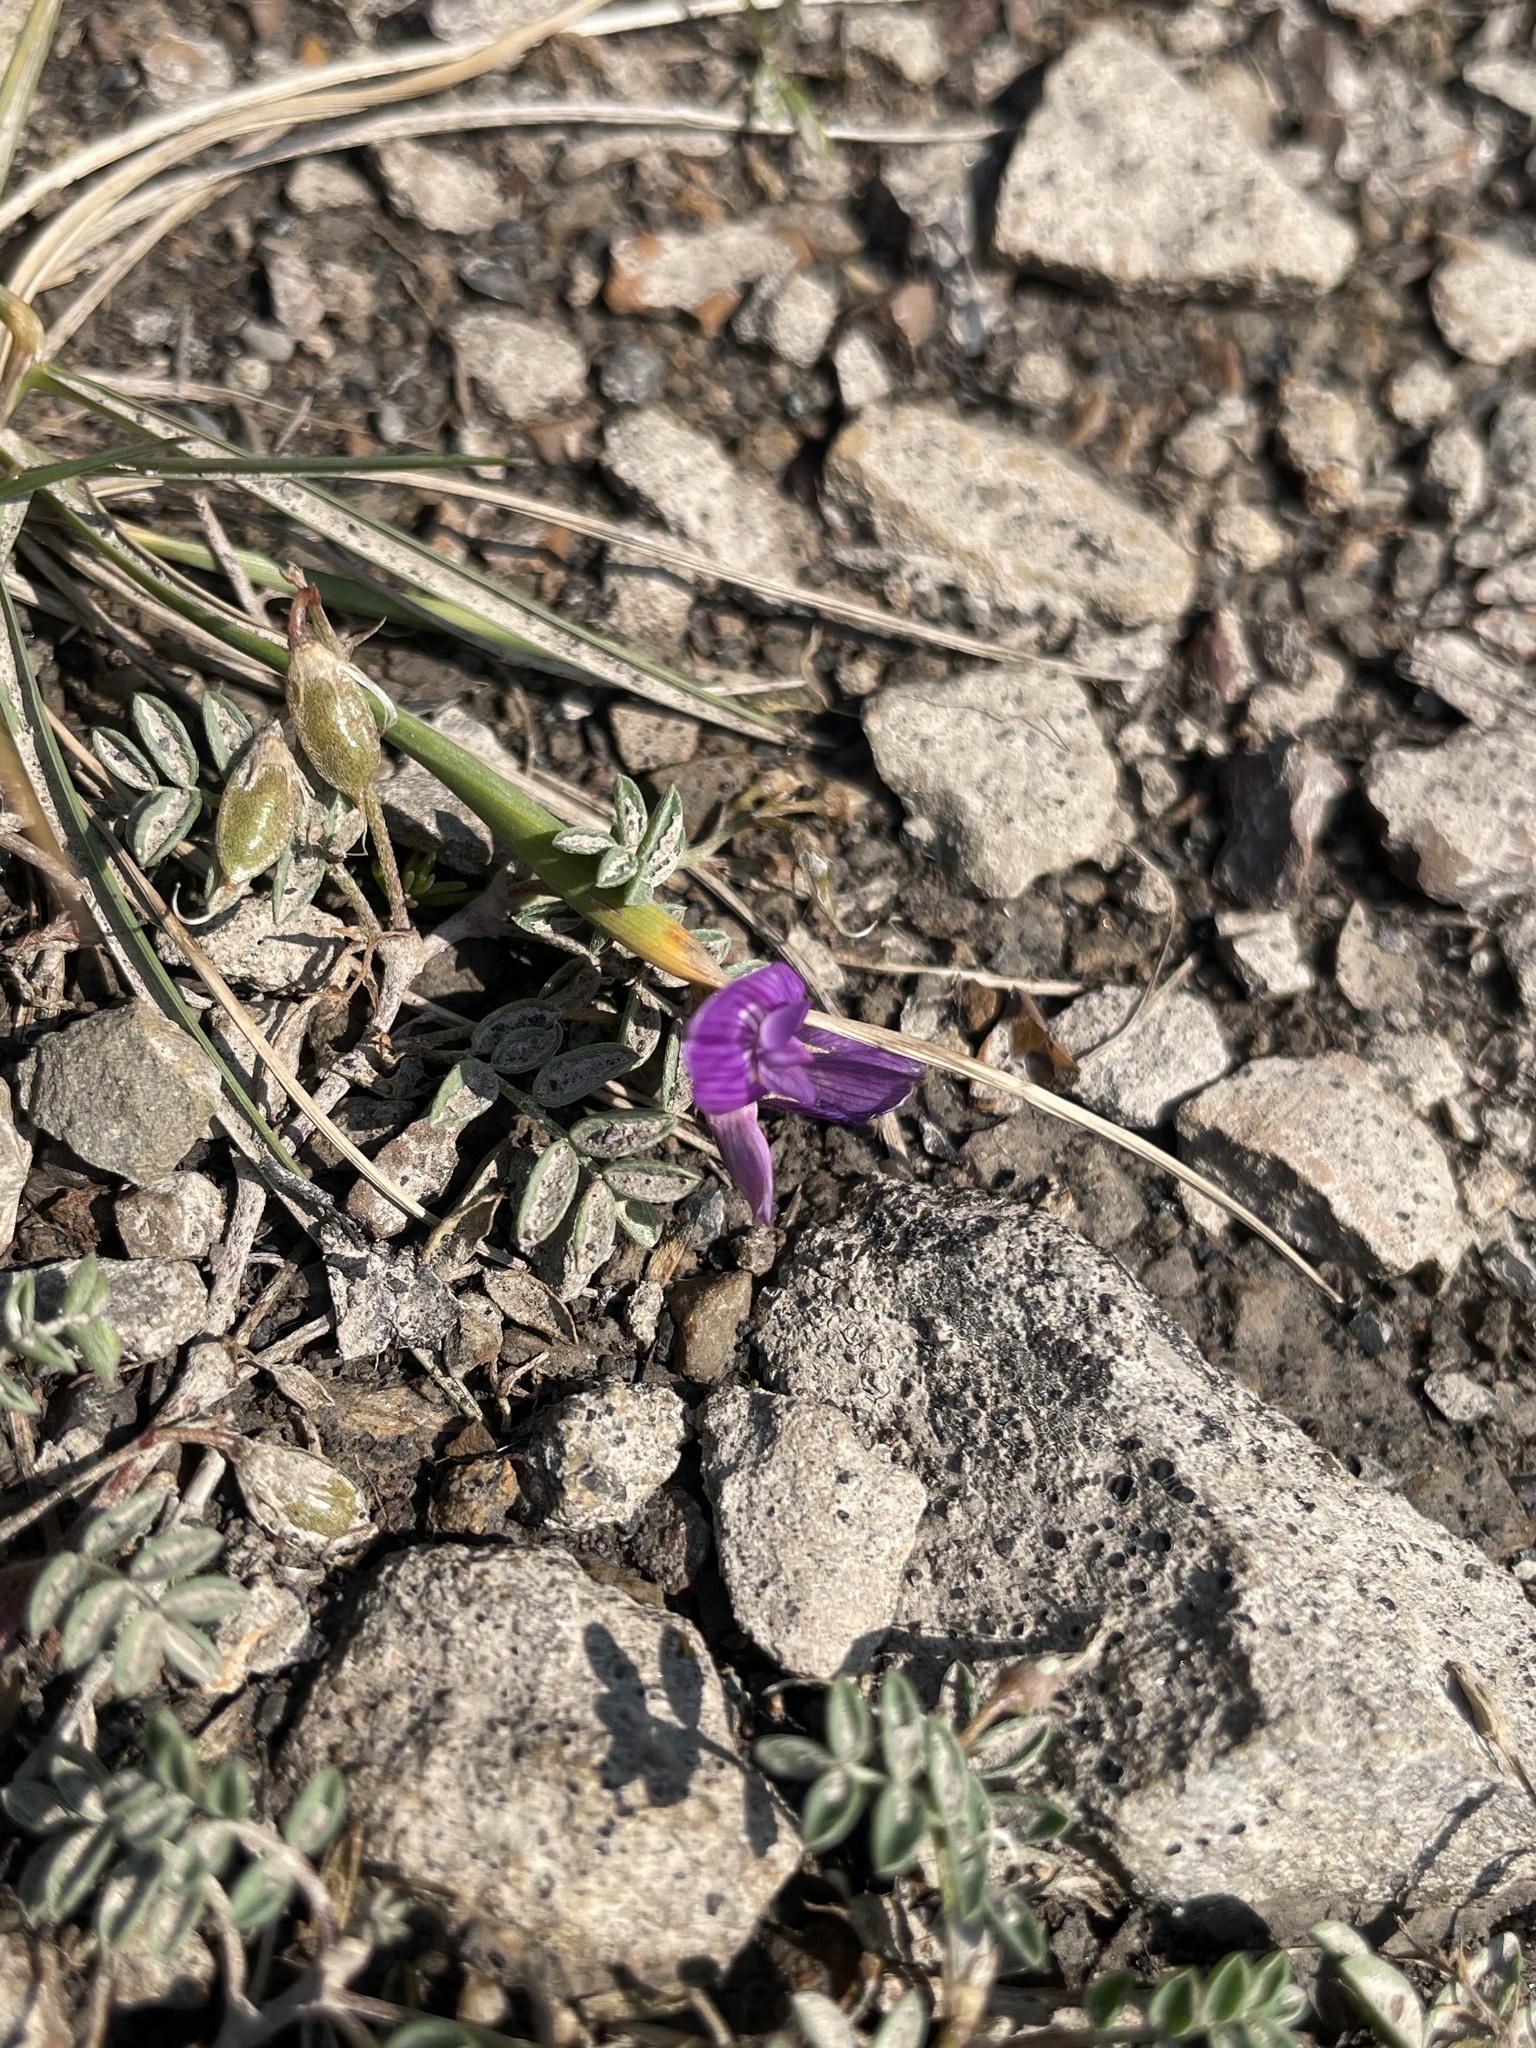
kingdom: Plantae
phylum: Tracheophyta
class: Magnoliopsida
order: Fabales
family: Fabaceae
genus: Astragalus
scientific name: Astragalus vexilliflexus
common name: Bent-flowered milk-vetch
